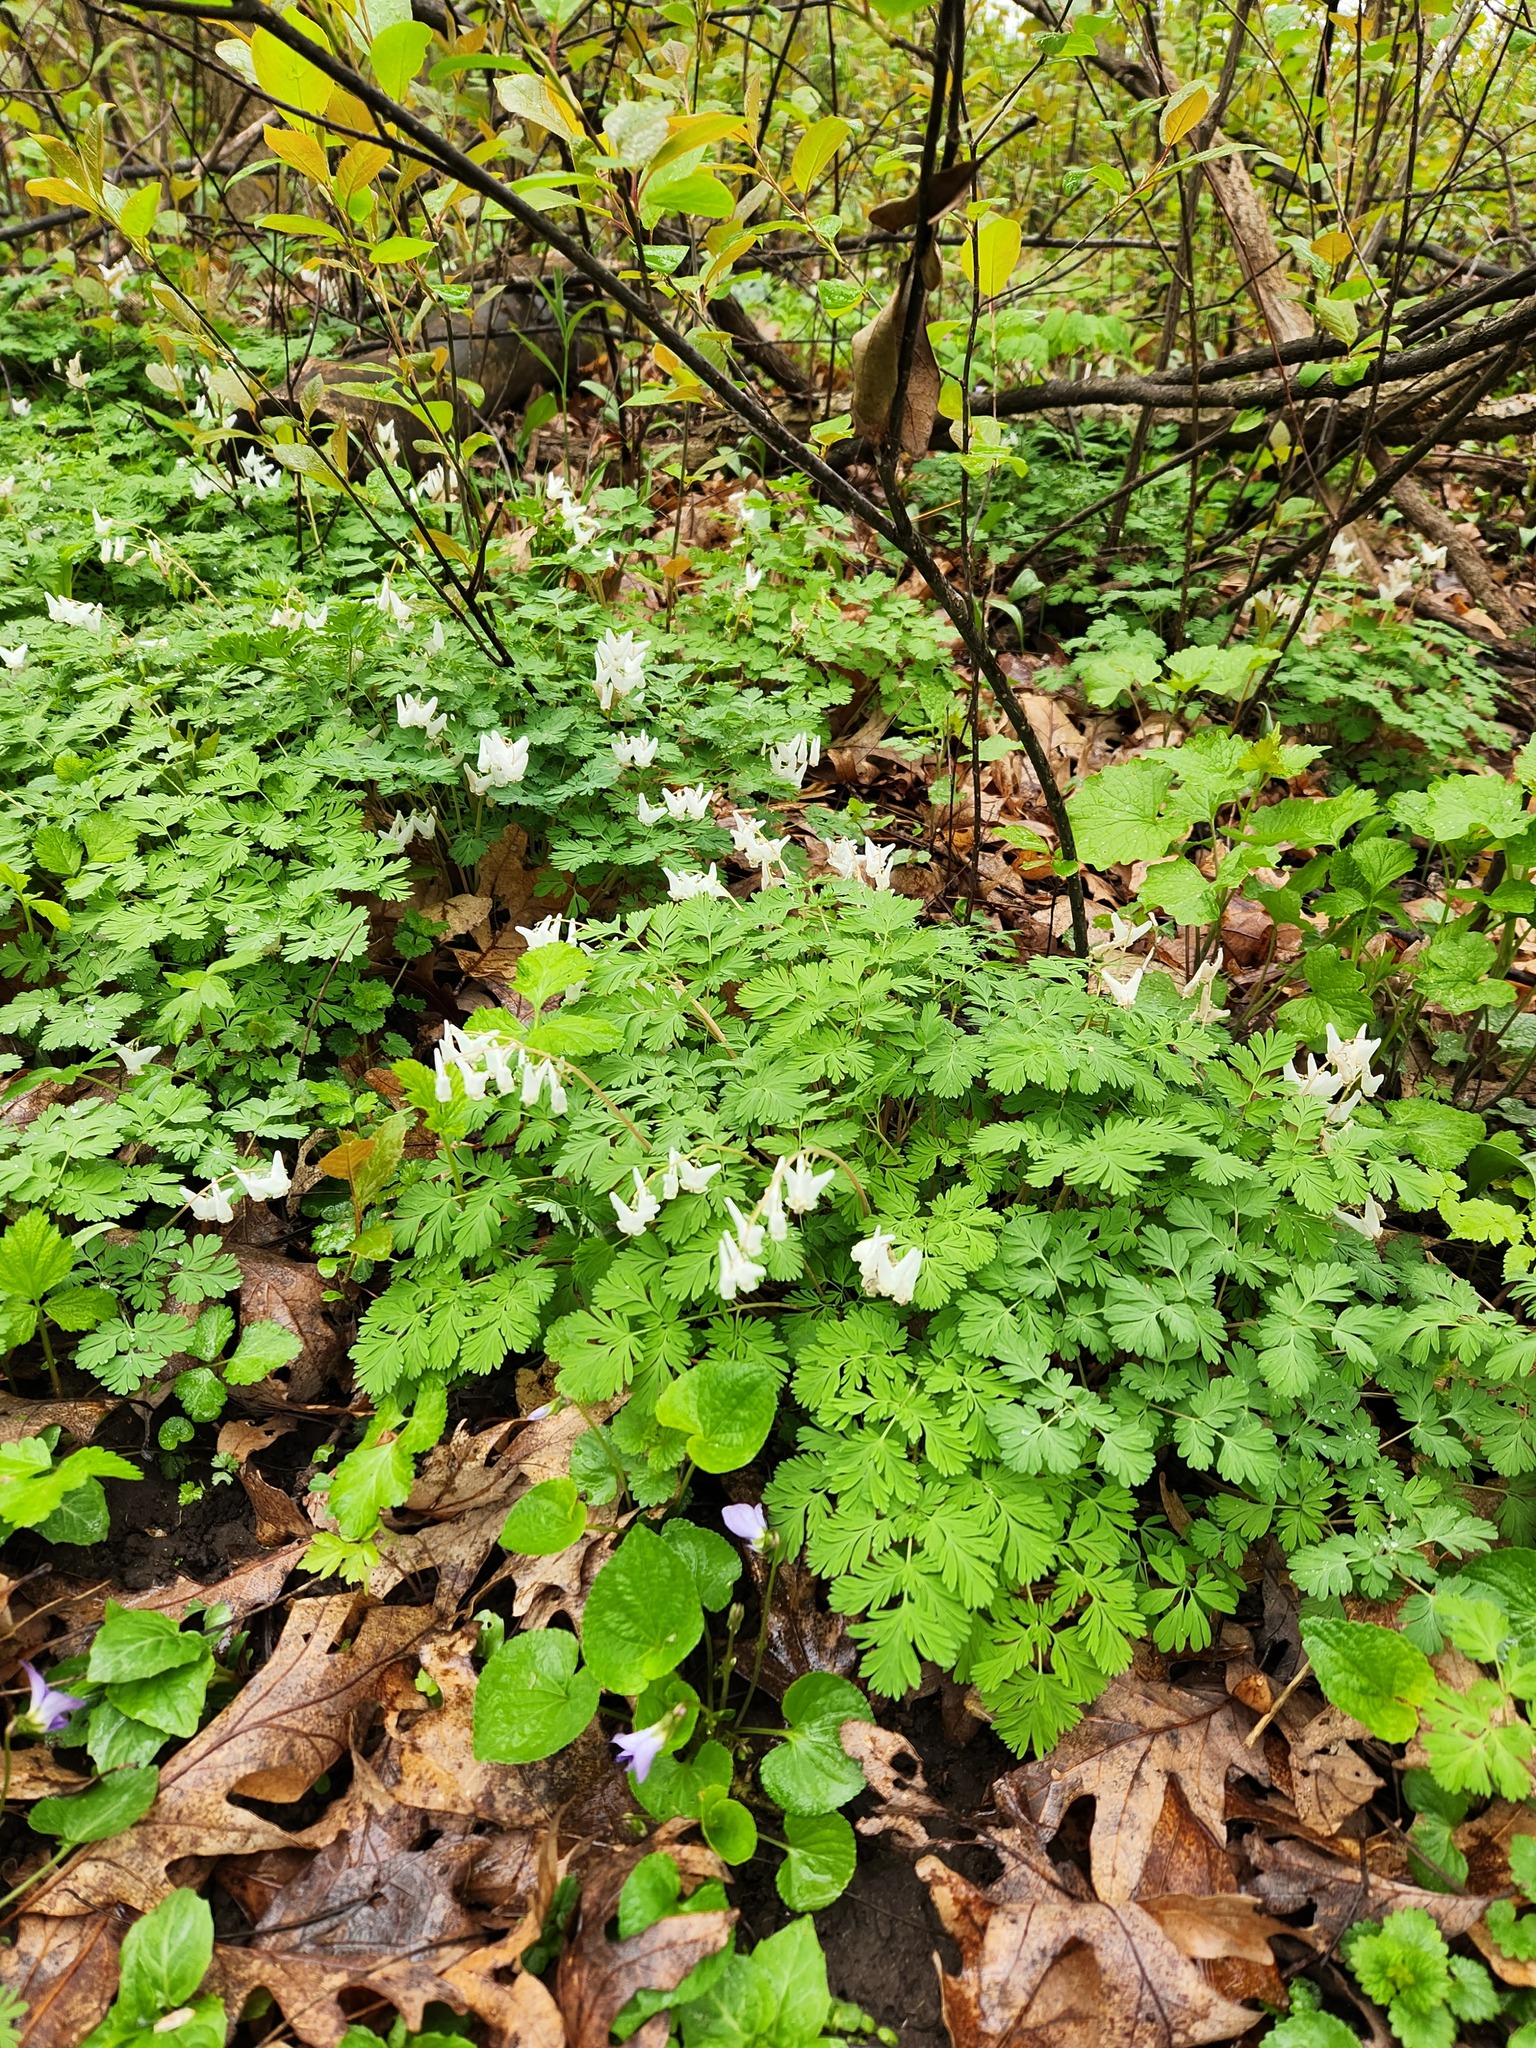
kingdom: Plantae
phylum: Tracheophyta
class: Magnoliopsida
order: Ranunculales
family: Papaveraceae
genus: Dicentra
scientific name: Dicentra cucullaria
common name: Dutchman's breeches
